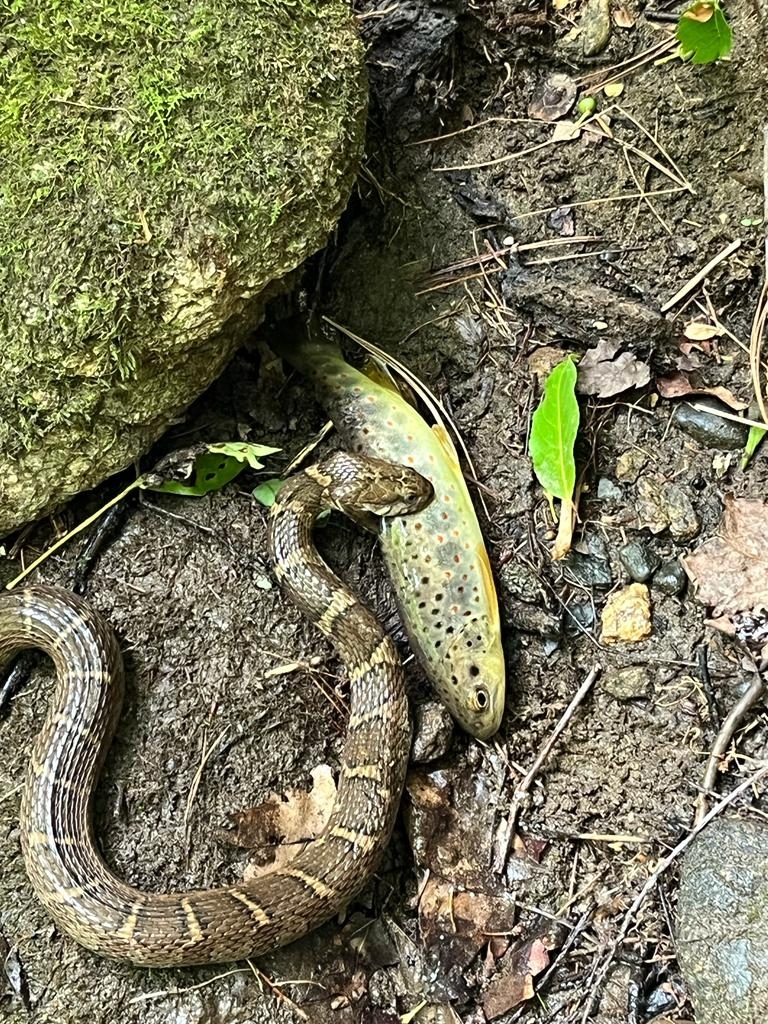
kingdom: Animalia
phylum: Chordata
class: Squamata
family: Colubridae
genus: Nerodia
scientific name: Nerodia sipedon
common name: Northern water snake
